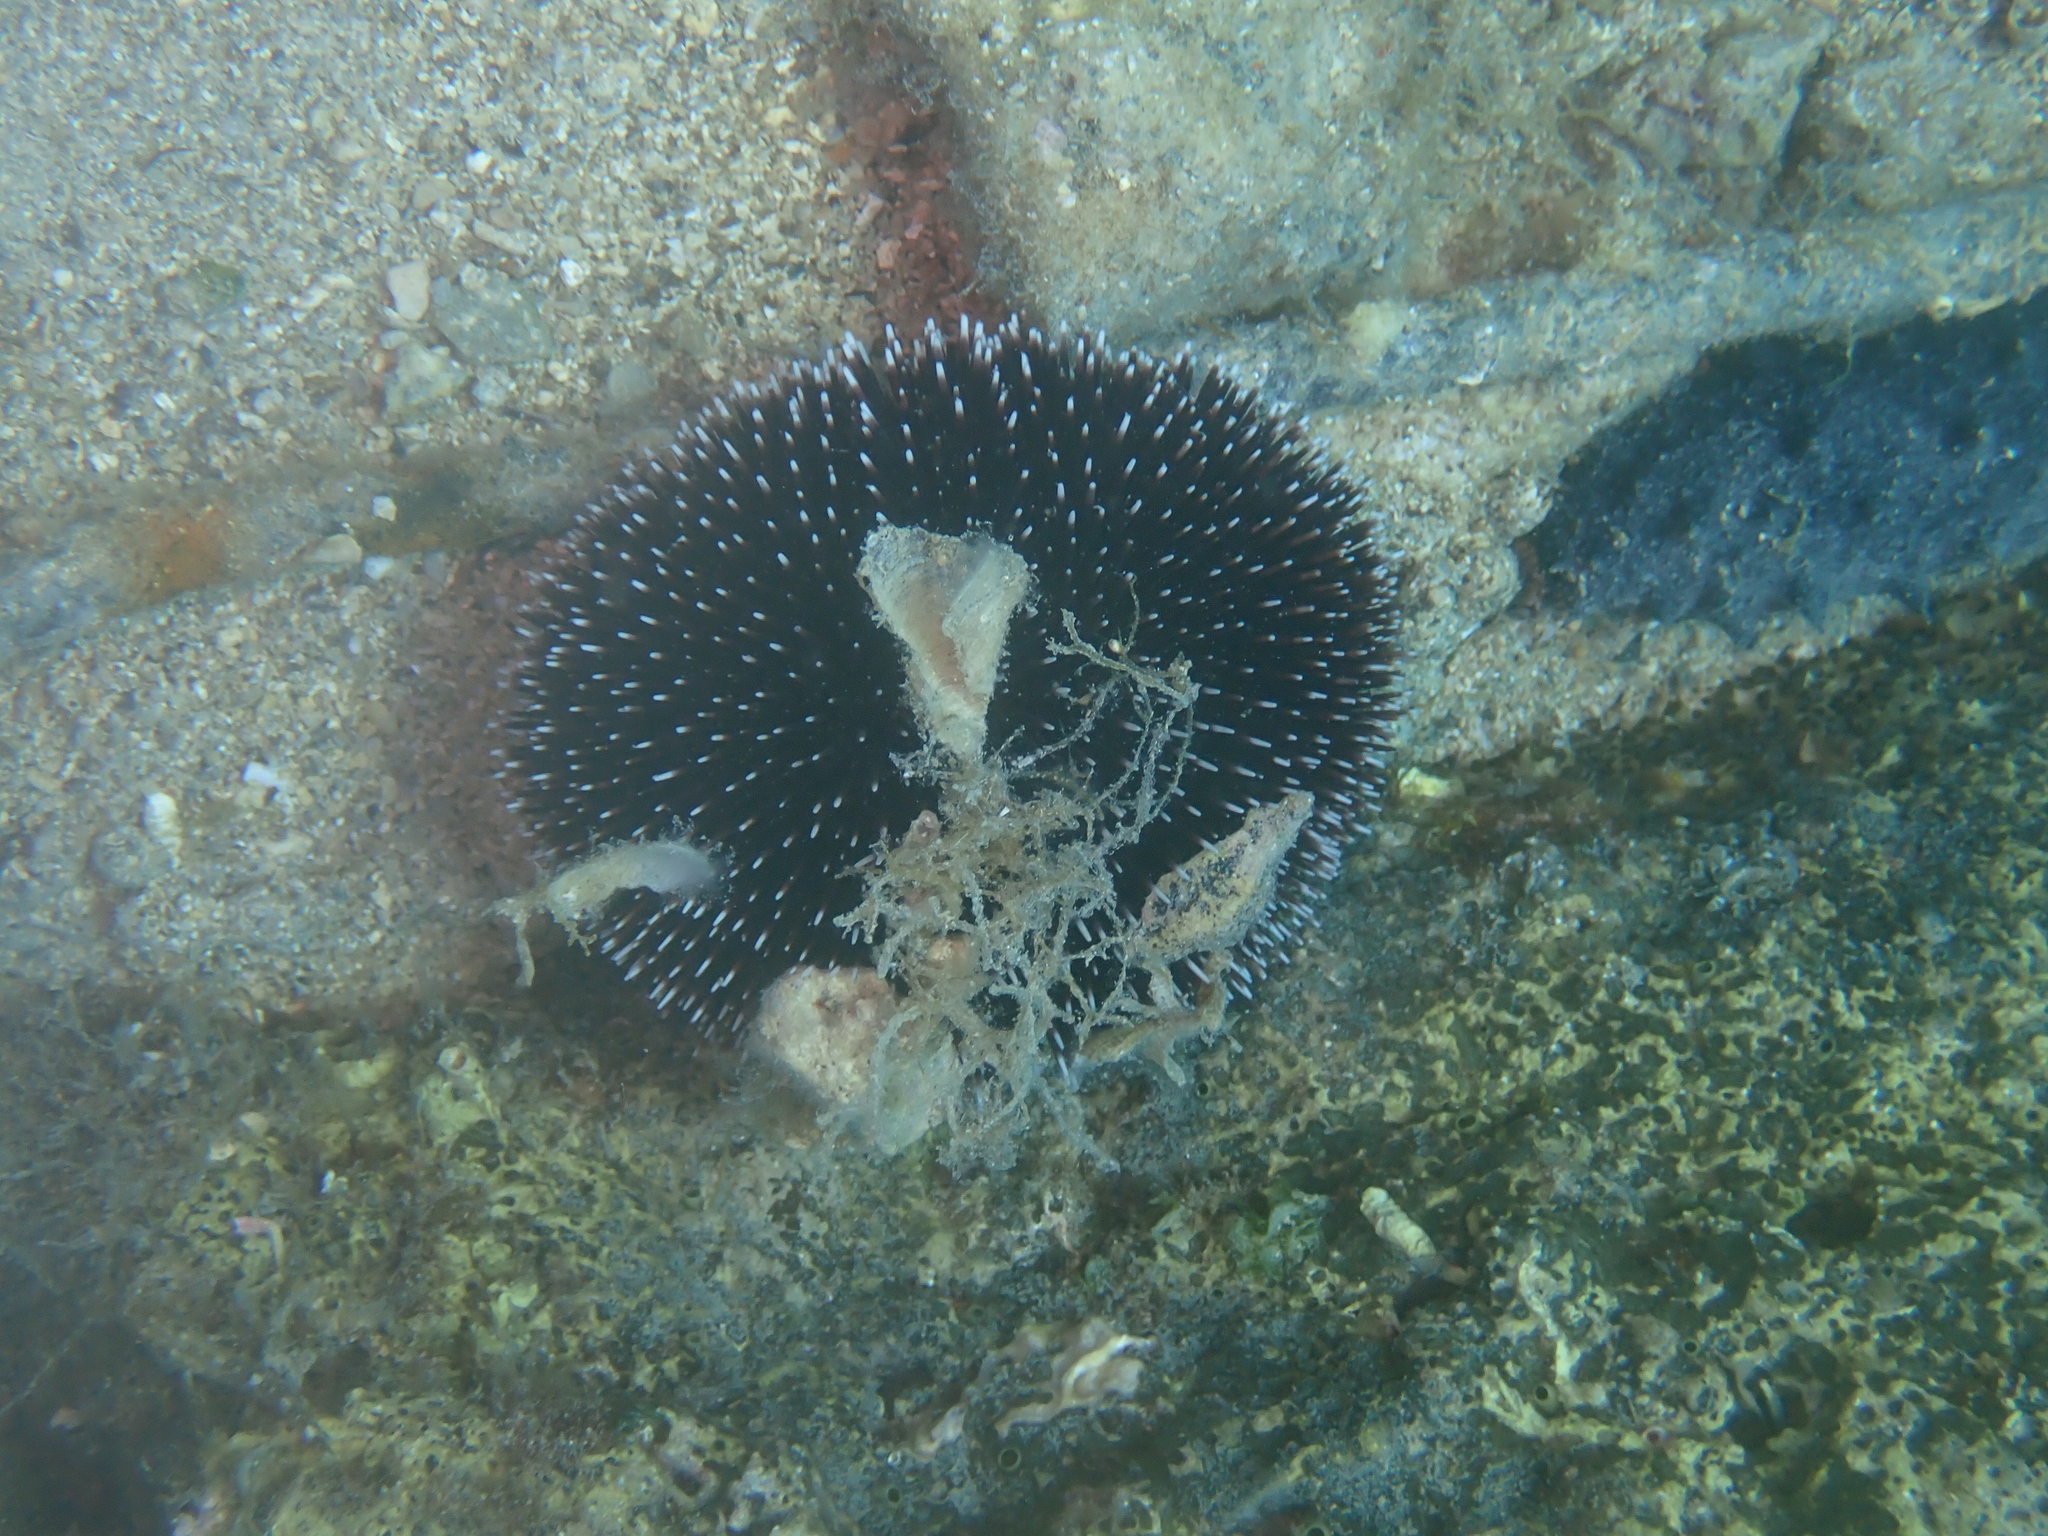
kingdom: Animalia
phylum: Echinodermata
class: Echinoidea
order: Camarodonta
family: Toxopneustidae
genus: Sphaerechinus
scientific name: Sphaerechinus granularis
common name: Violet sea urchin
